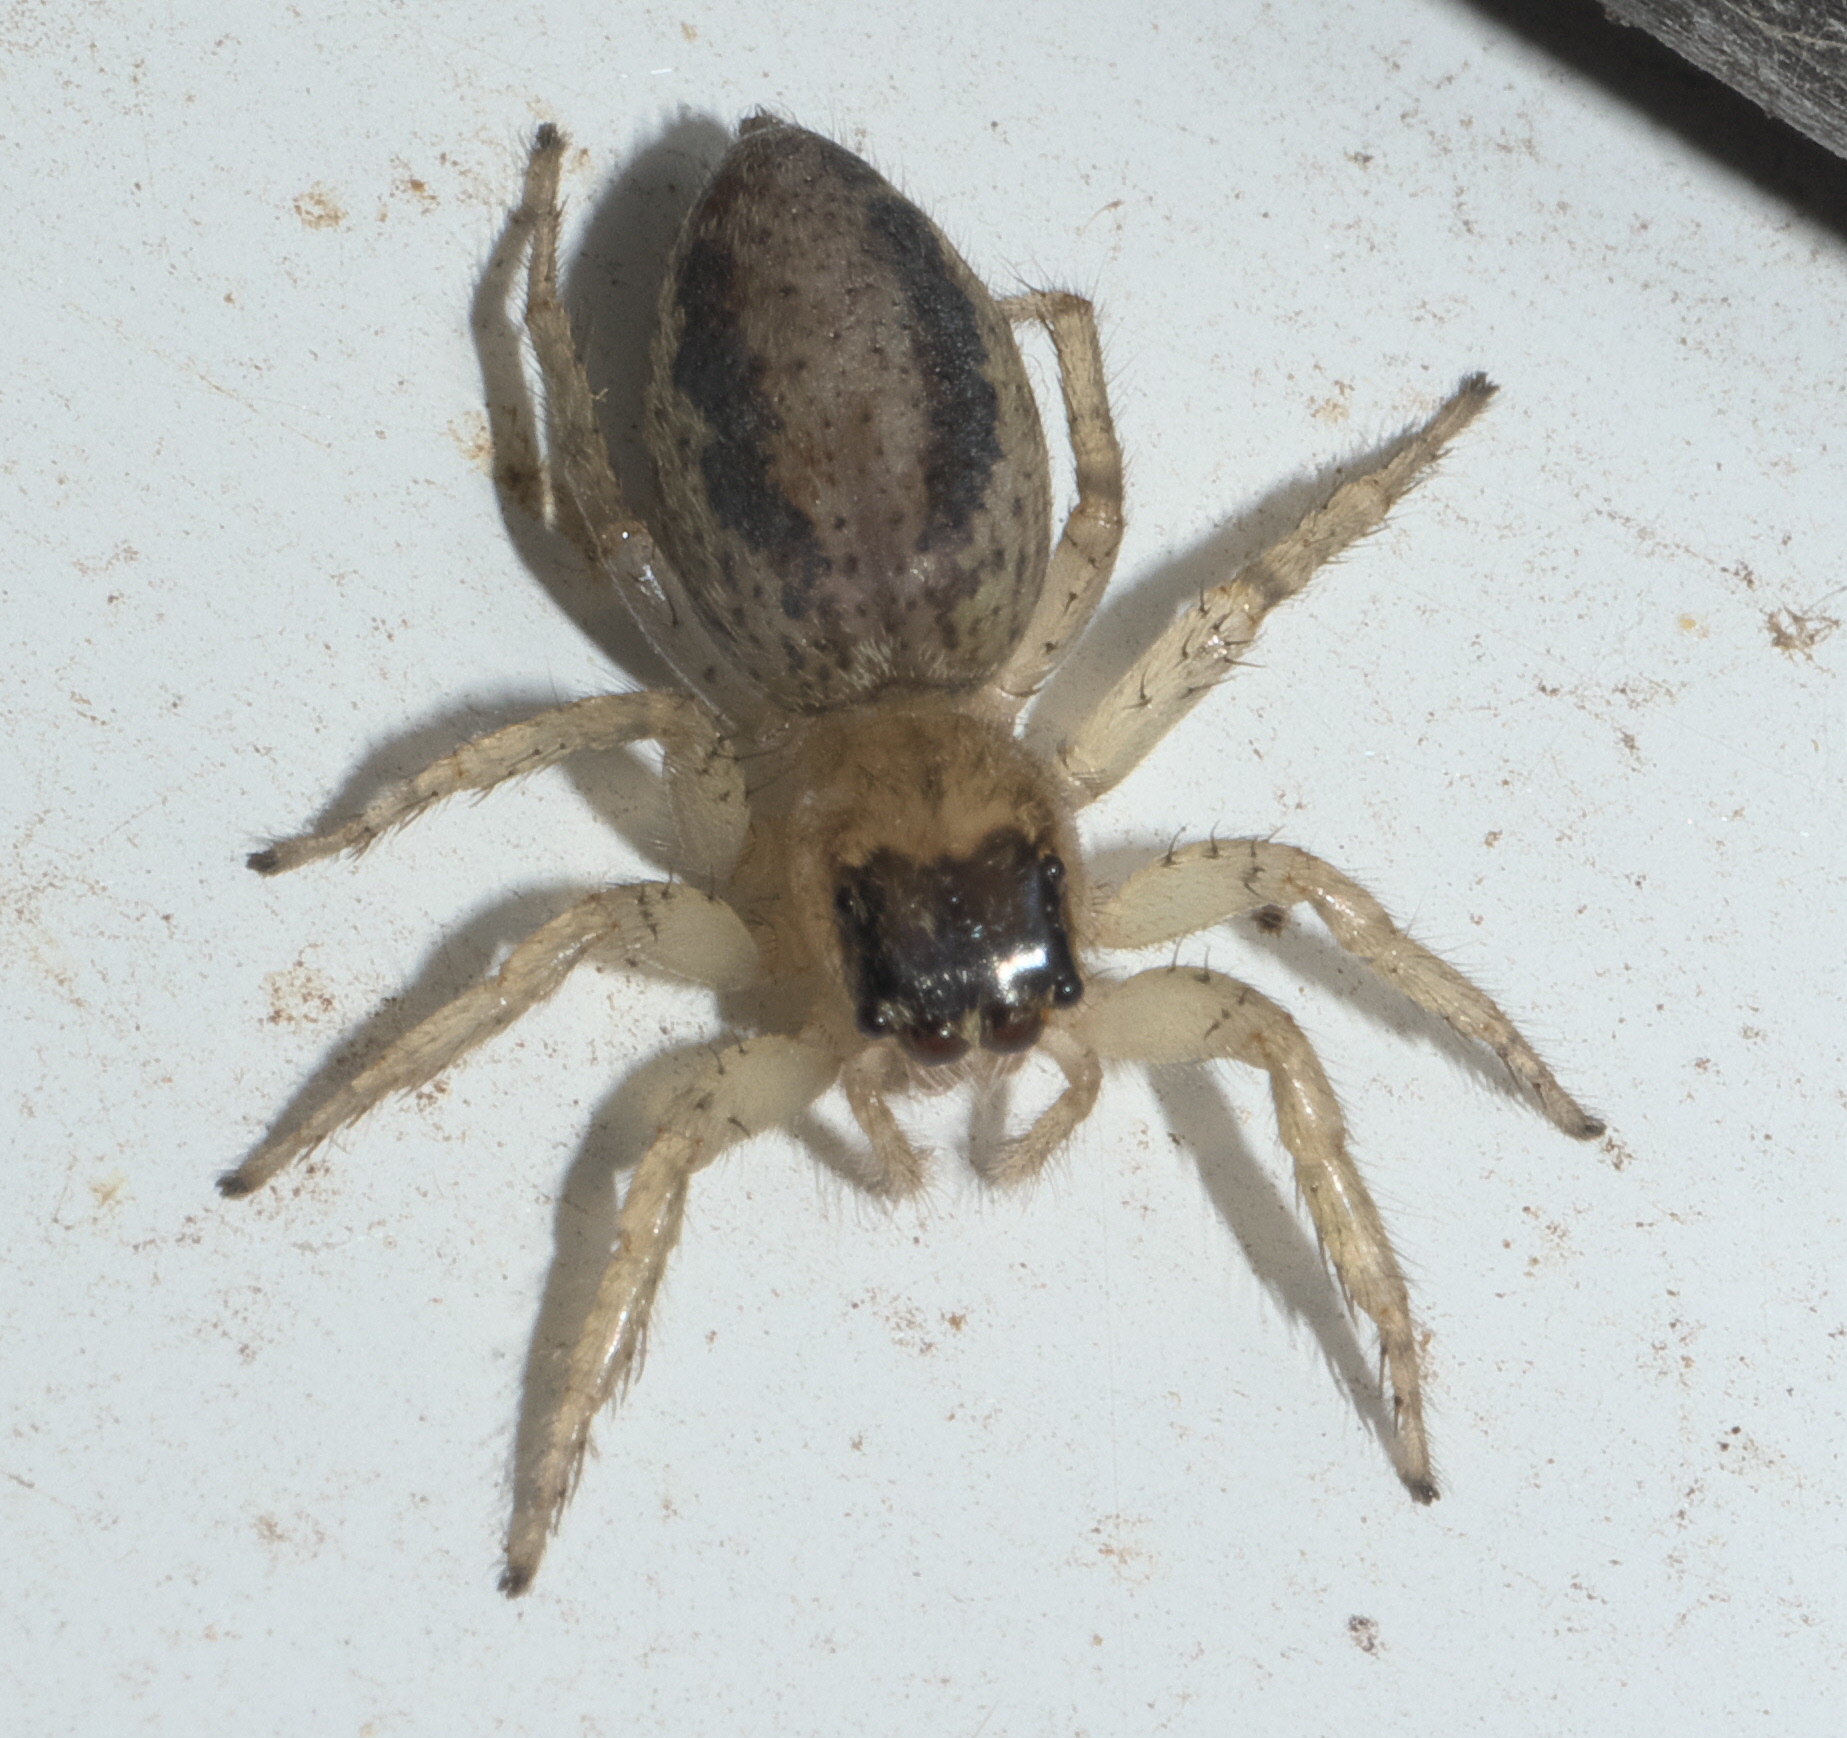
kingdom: Animalia
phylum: Arthropoda
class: Arachnida
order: Araneae
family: Salticidae
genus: Maevia
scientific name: Maevia inclemens
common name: Dimorphic jumper
